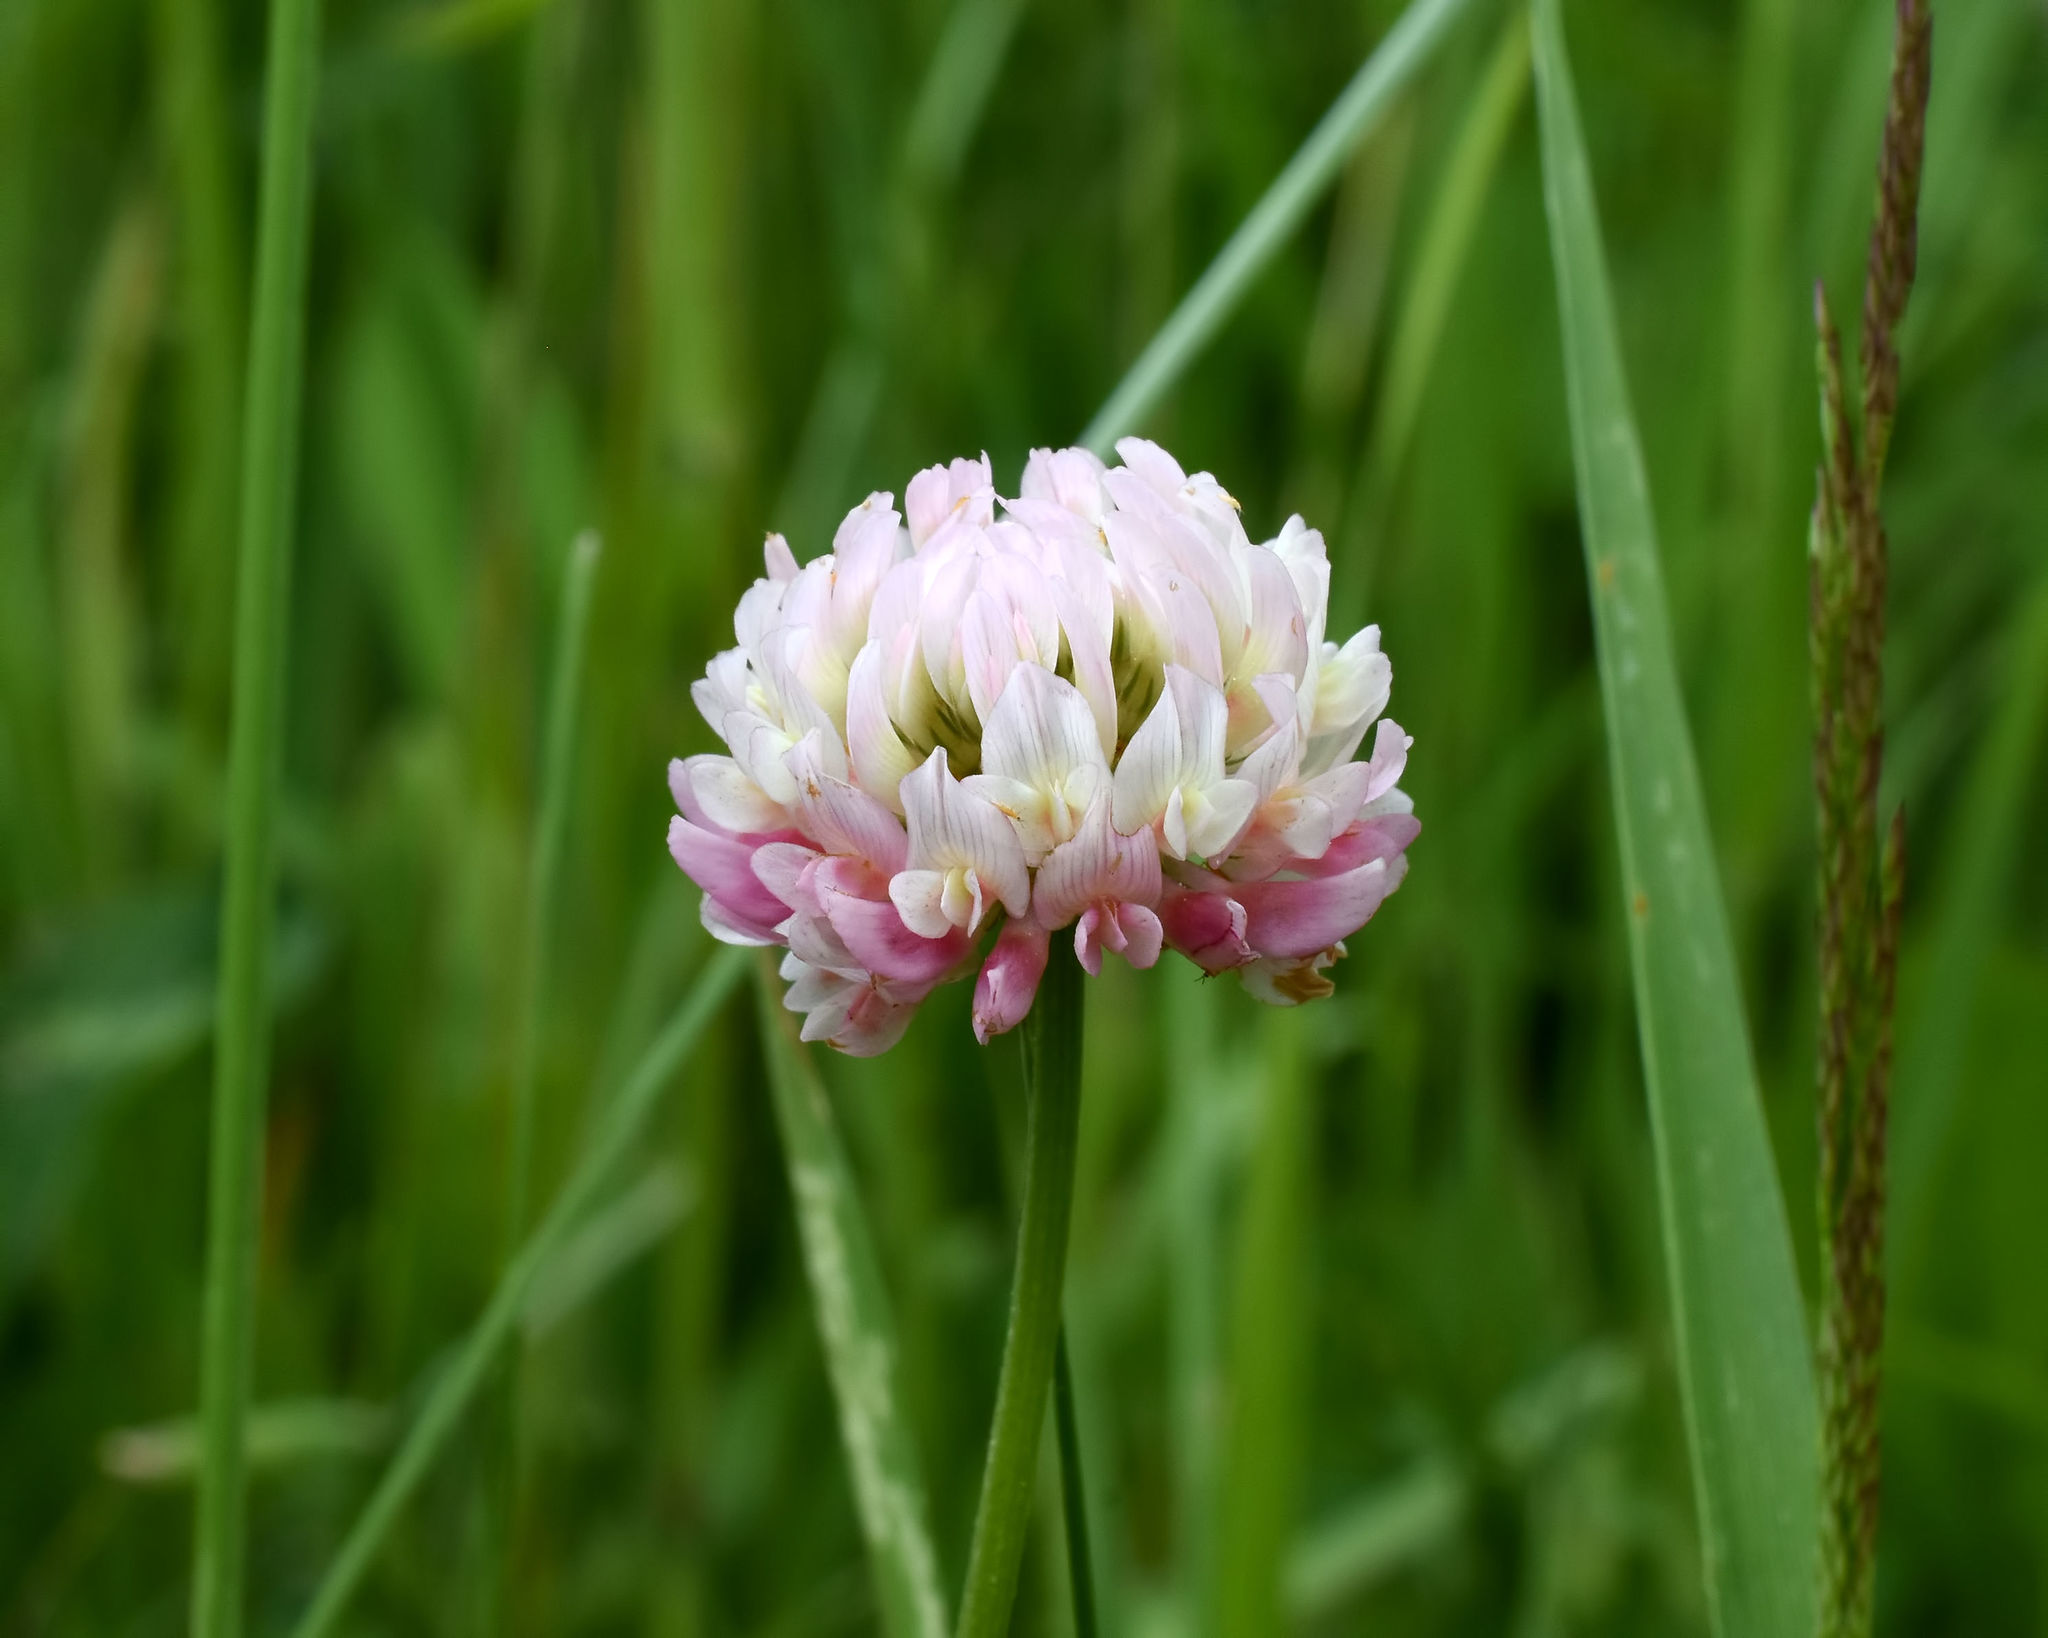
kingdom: Plantae
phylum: Tracheophyta
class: Magnoliopsida
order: Fabales
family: Fabaceae
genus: Trifolium
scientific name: Trifolium hybridum
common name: Alsike clover
